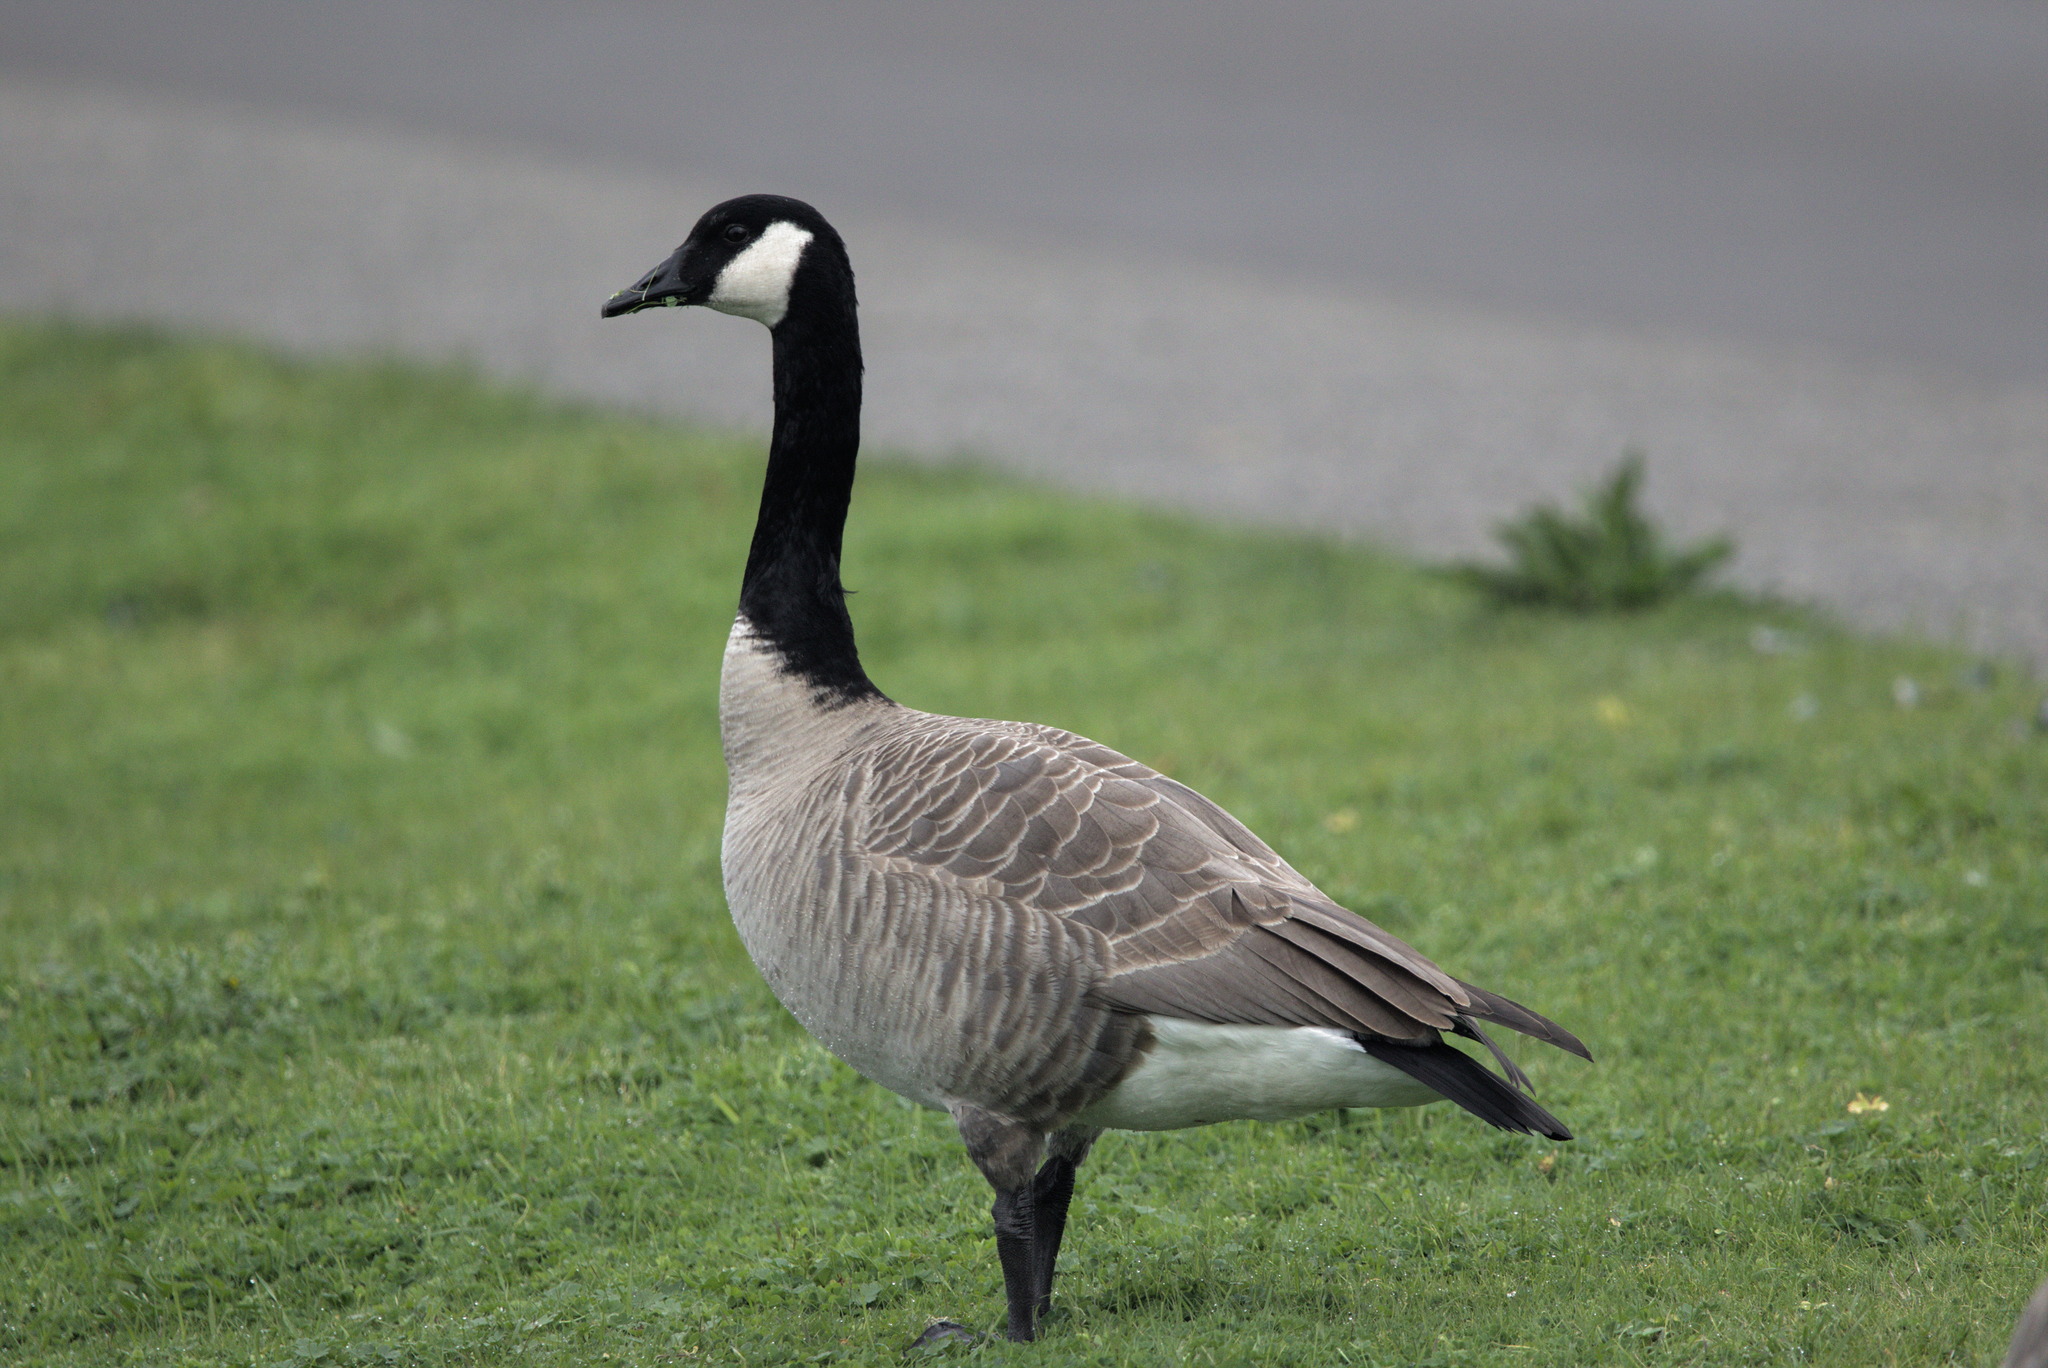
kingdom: Animalia
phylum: Chordata
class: Aves
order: Anseriformes
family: Anatidae
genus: Branta
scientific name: Branta canadensis
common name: Canada goose
